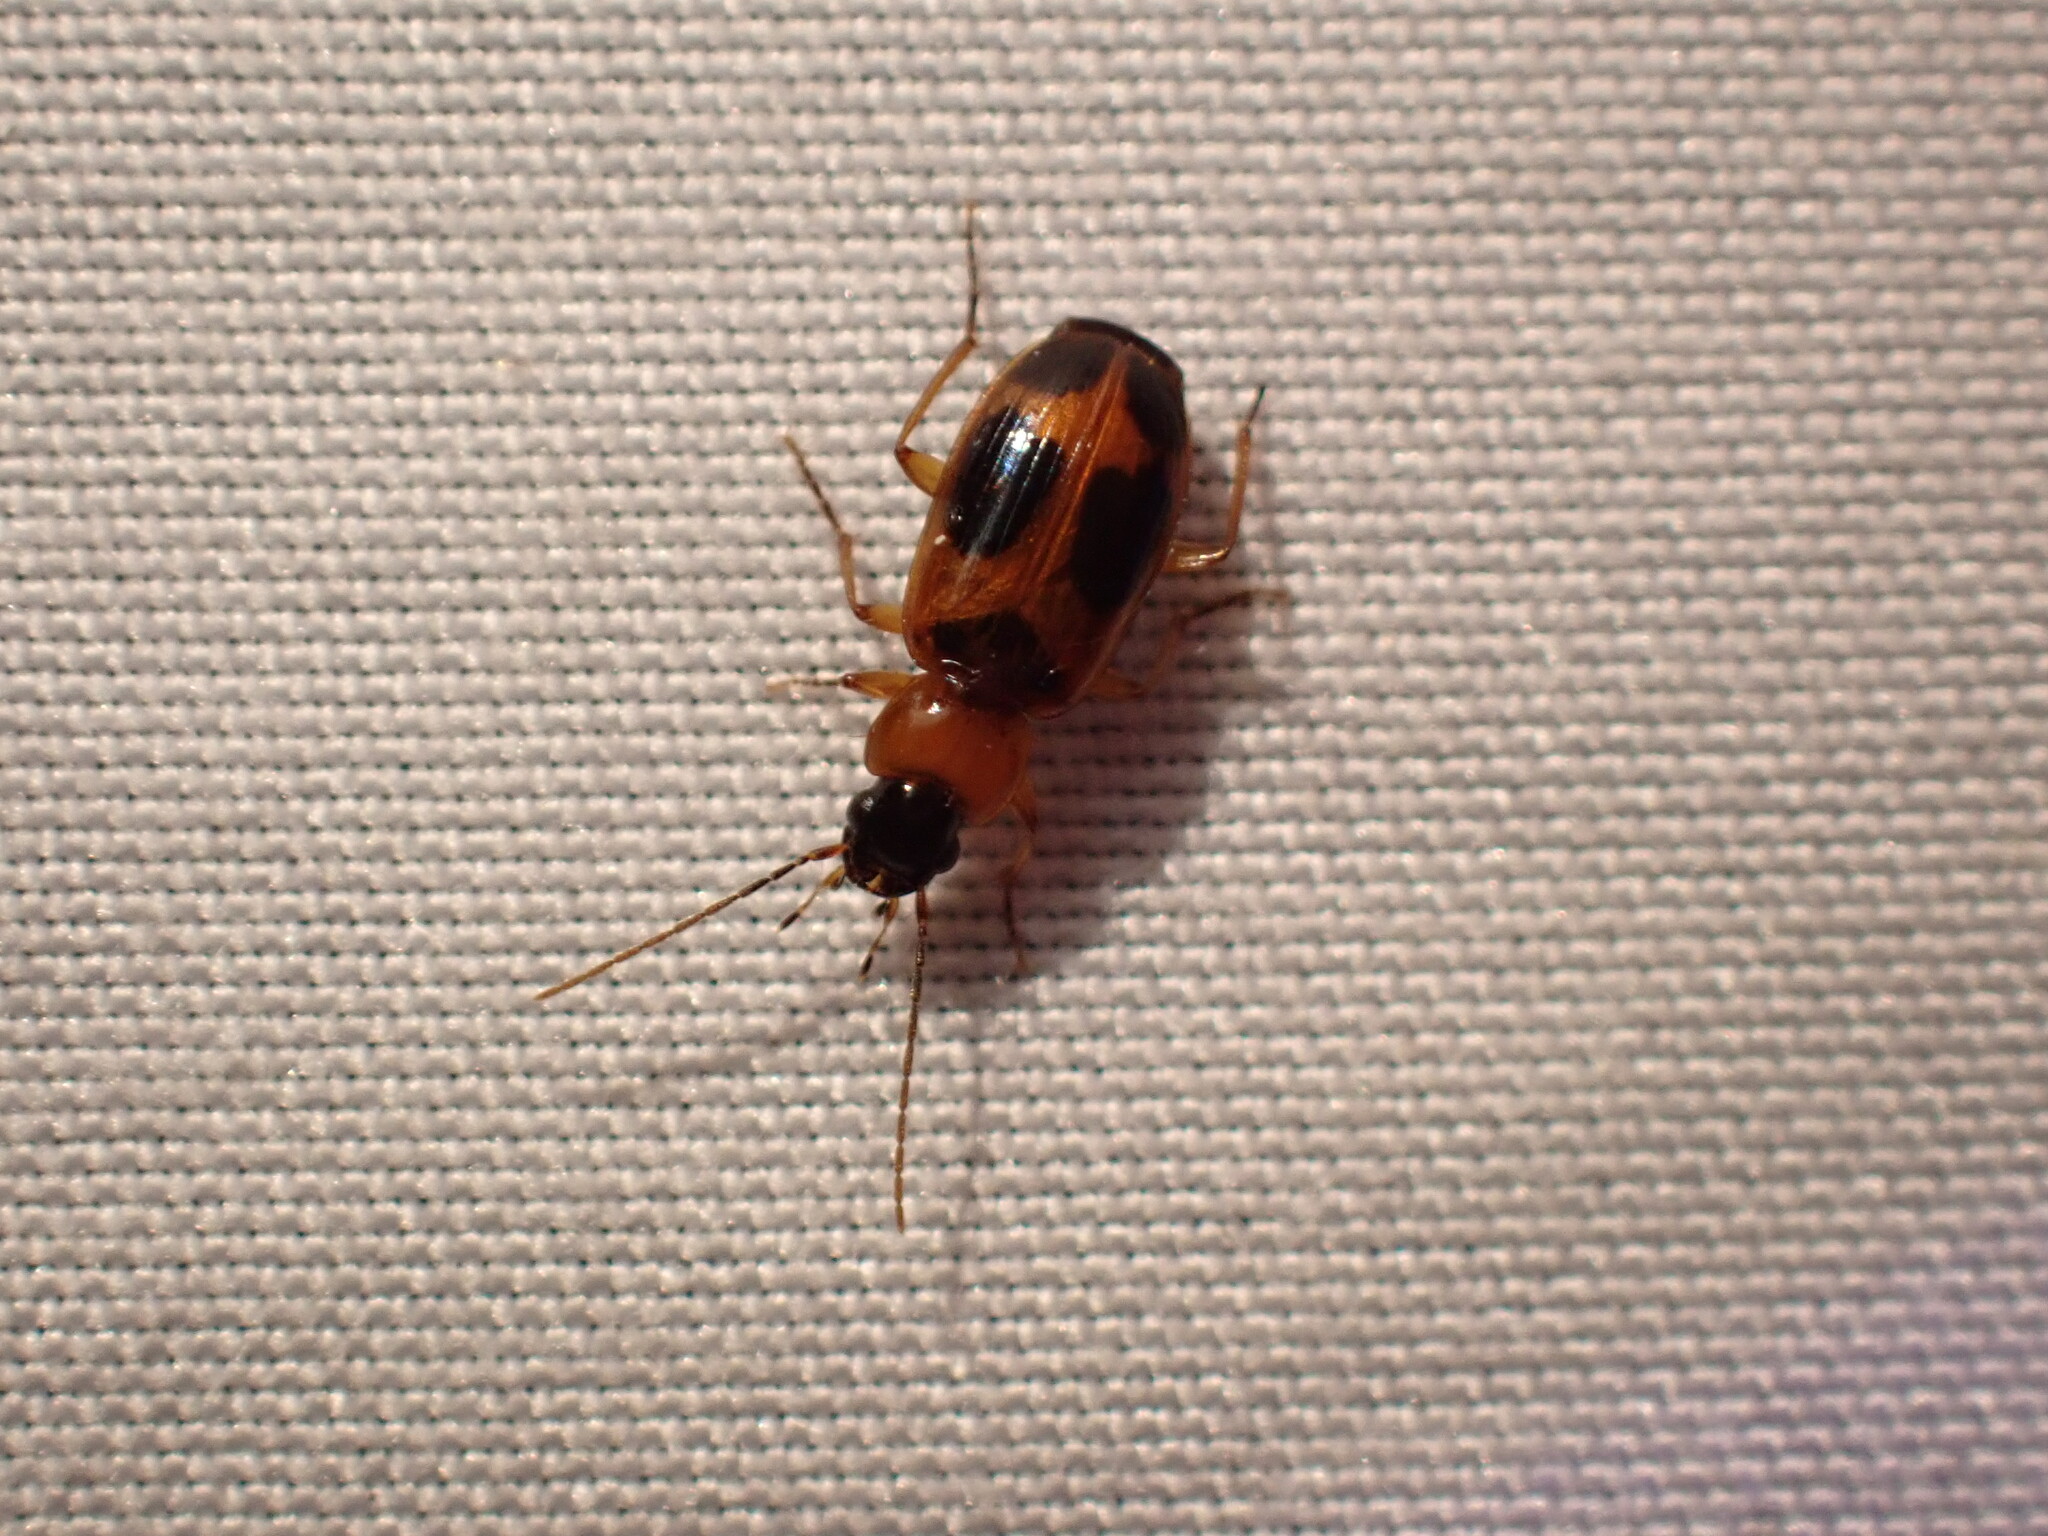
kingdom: Animalia
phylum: Arthropoda
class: Insecta
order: Coleoptera
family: Carabidae
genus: Badister
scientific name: Badister neopulchellus
